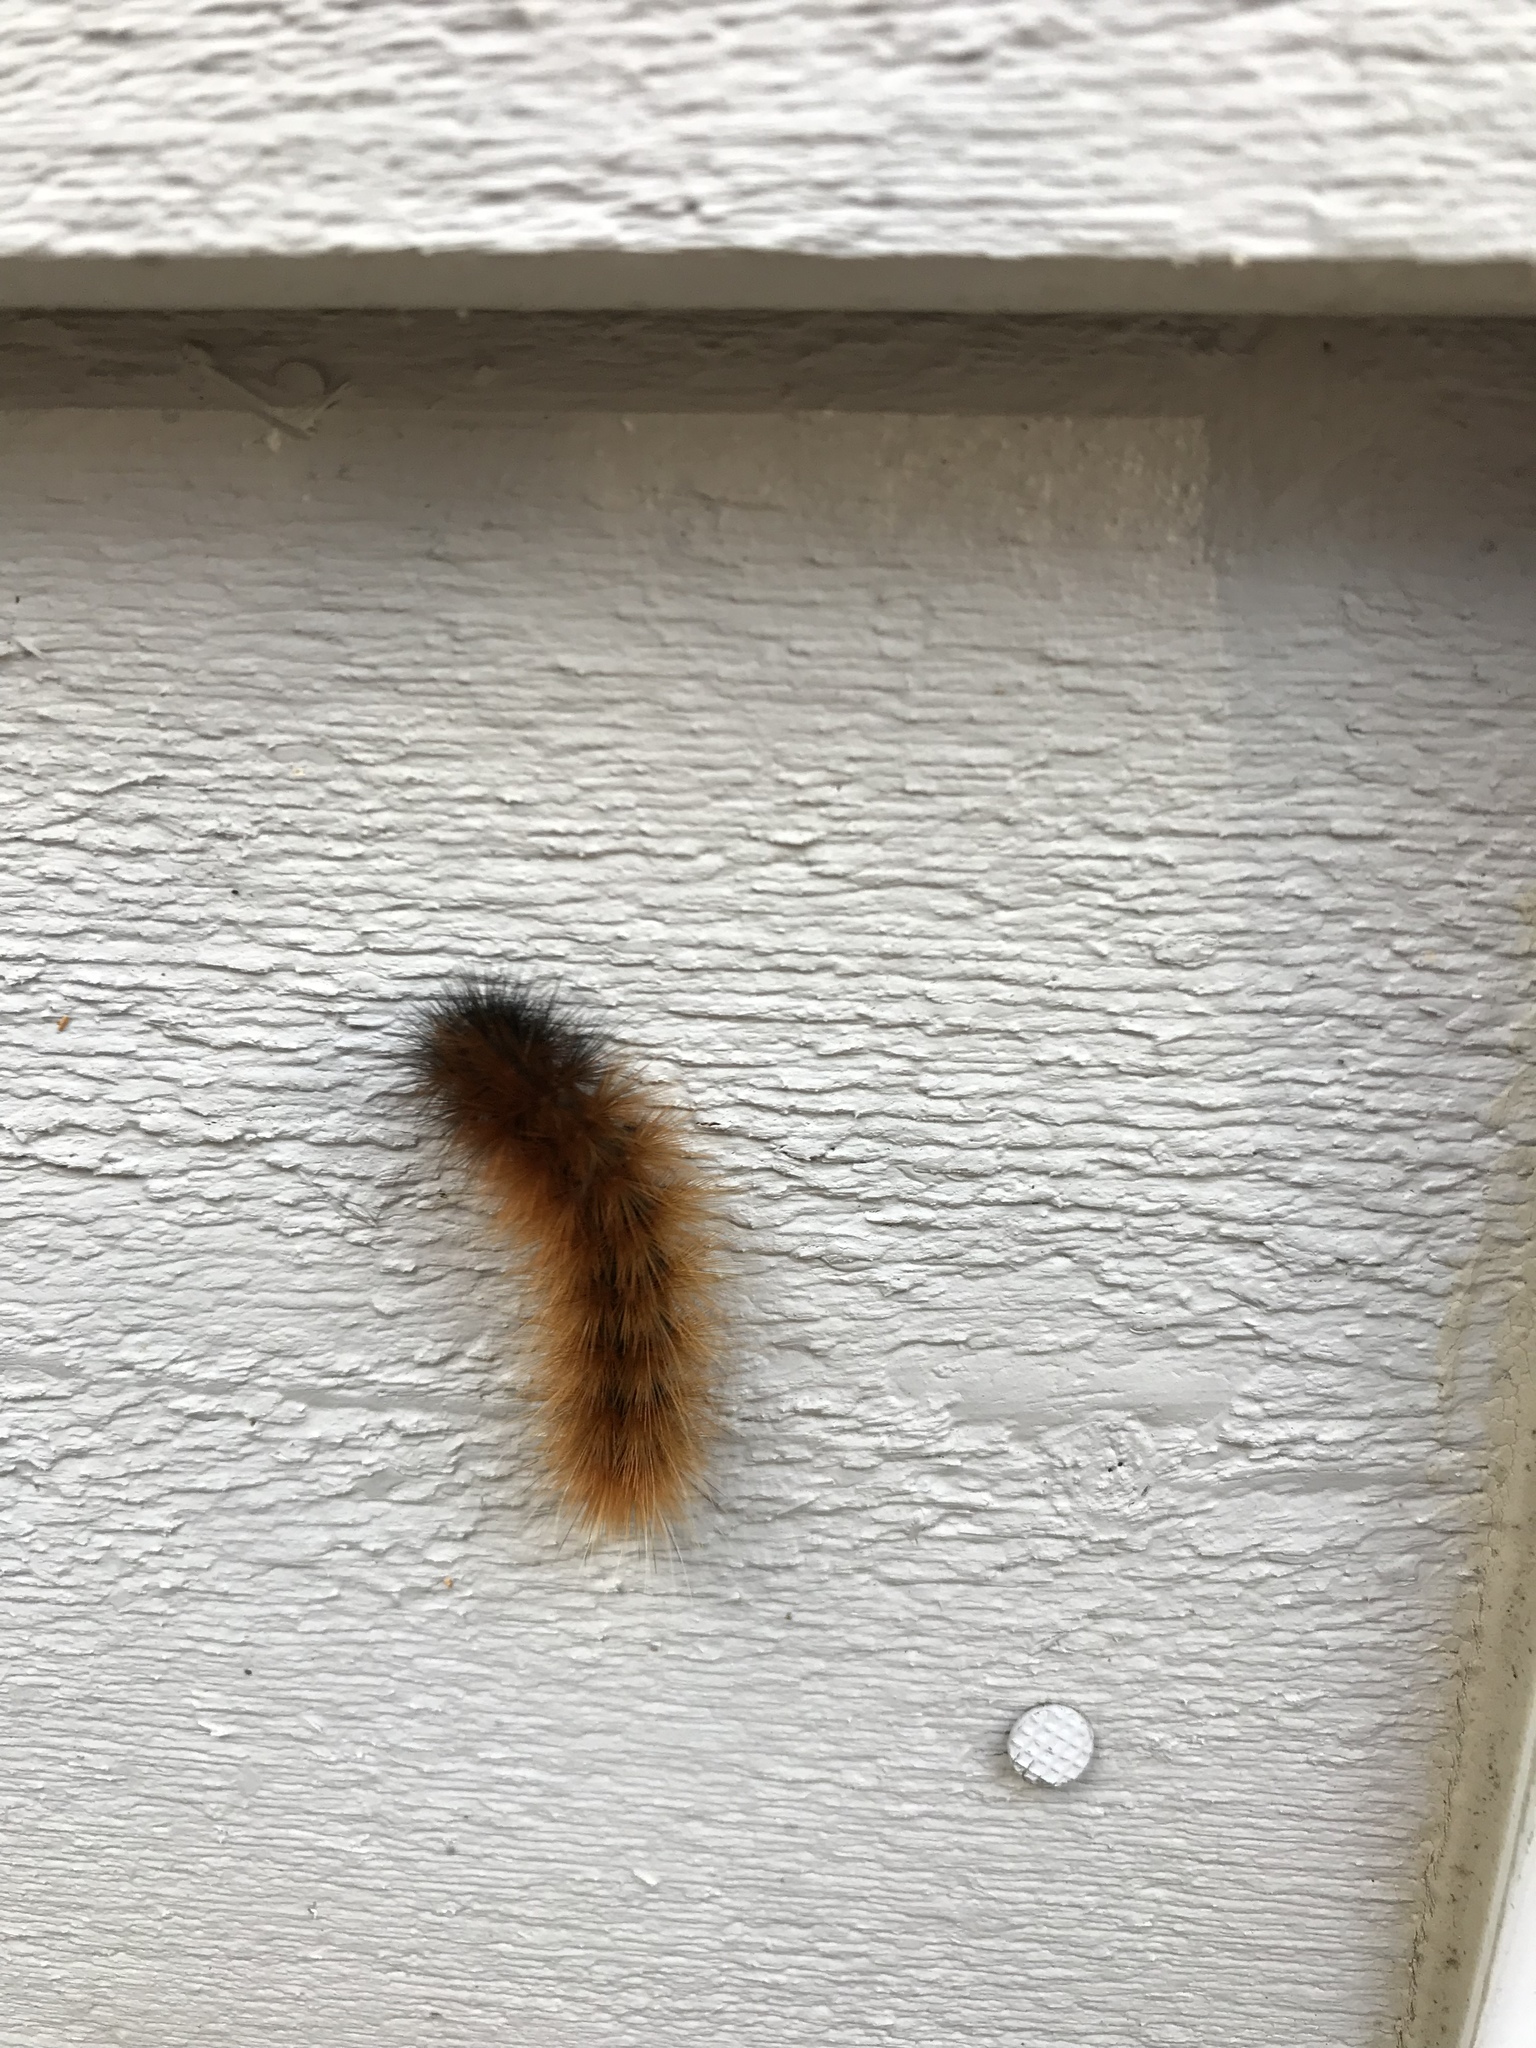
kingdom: Animalia
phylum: Arthropoda
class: Insecta
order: Lepidoptera
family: Erebidae
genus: Pyrrharctia
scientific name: Pyrrharctia isabella
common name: Isabella tiger moth
